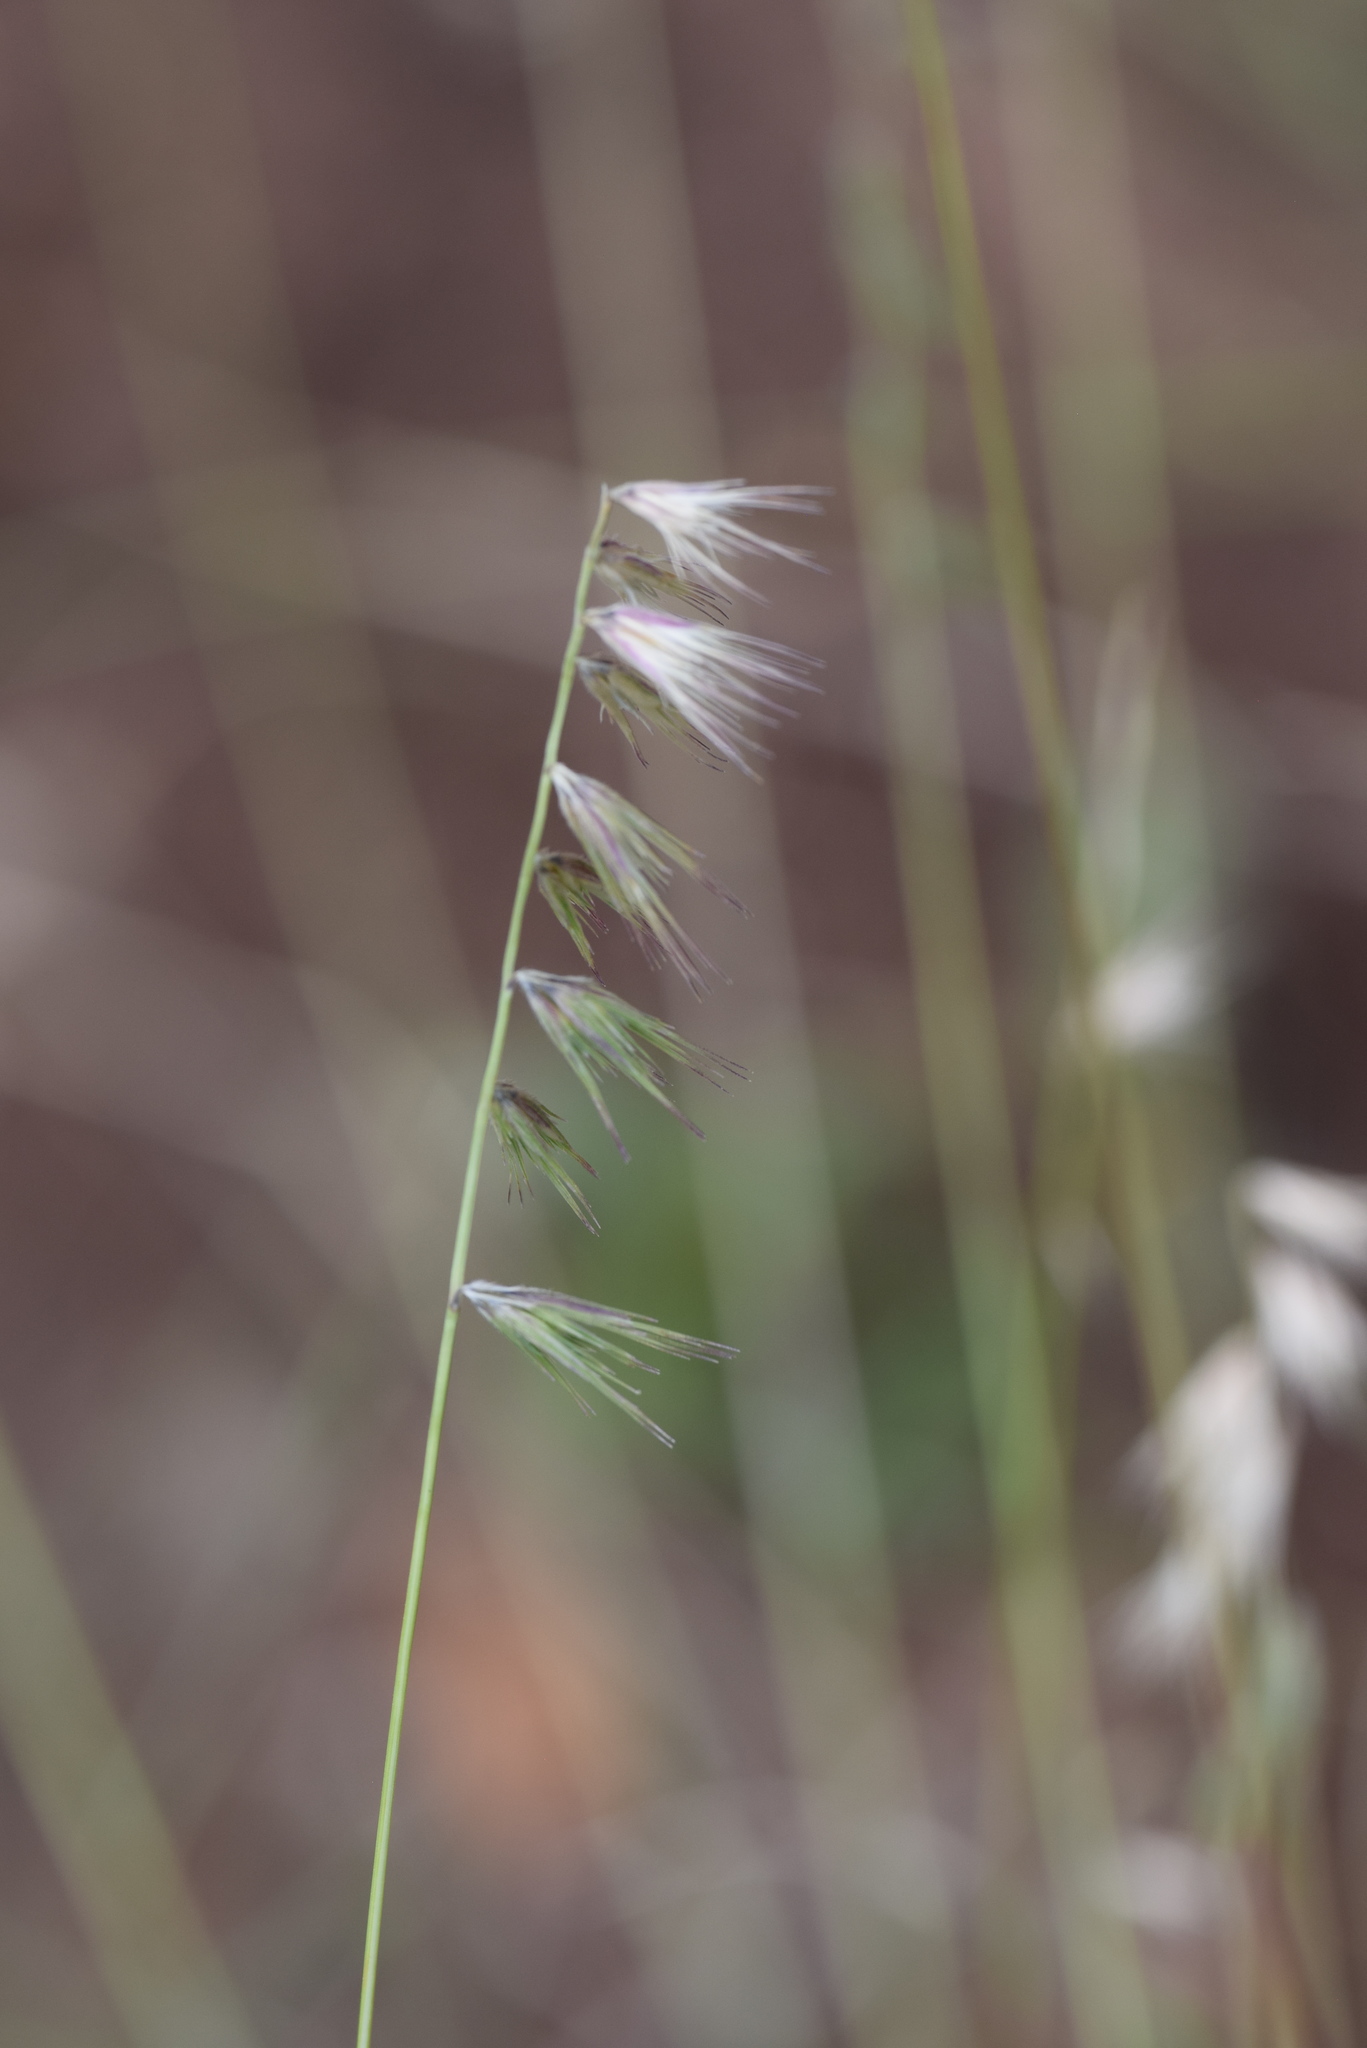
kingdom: Plantae
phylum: Tracheophyta
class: Liliopsida
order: Poales
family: Poaceae
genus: Bouteloua
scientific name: Bouteloua rigidiseta
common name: Texas grama
